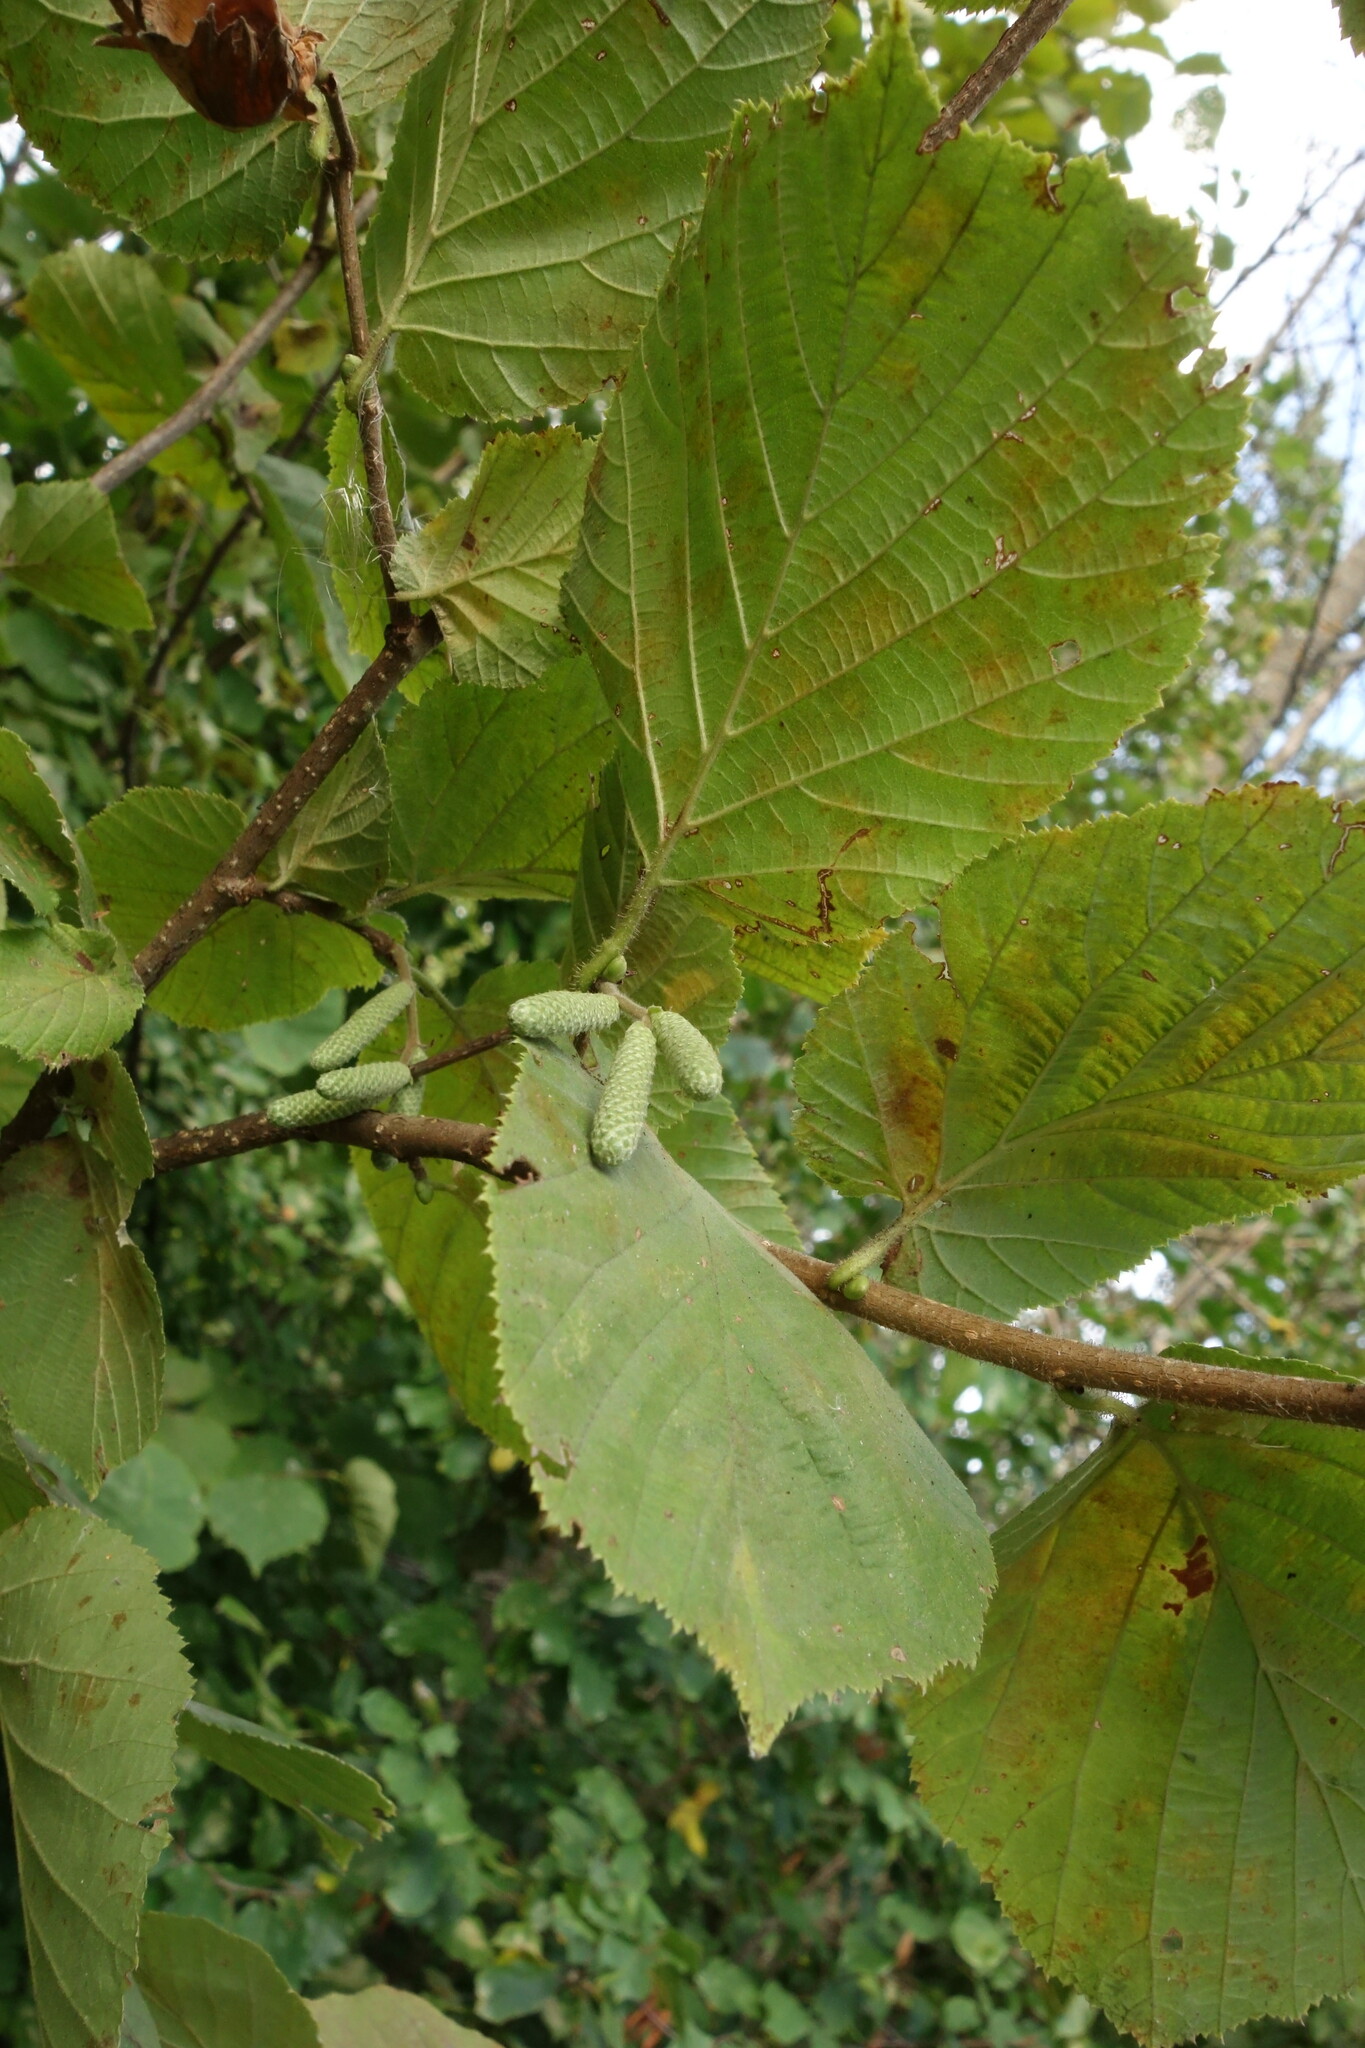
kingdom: Plantae
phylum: Tracheophyta
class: Magnoliopsida
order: Fagales
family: Betulaceae
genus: Corylus
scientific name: Corylus avellana
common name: European hazel
